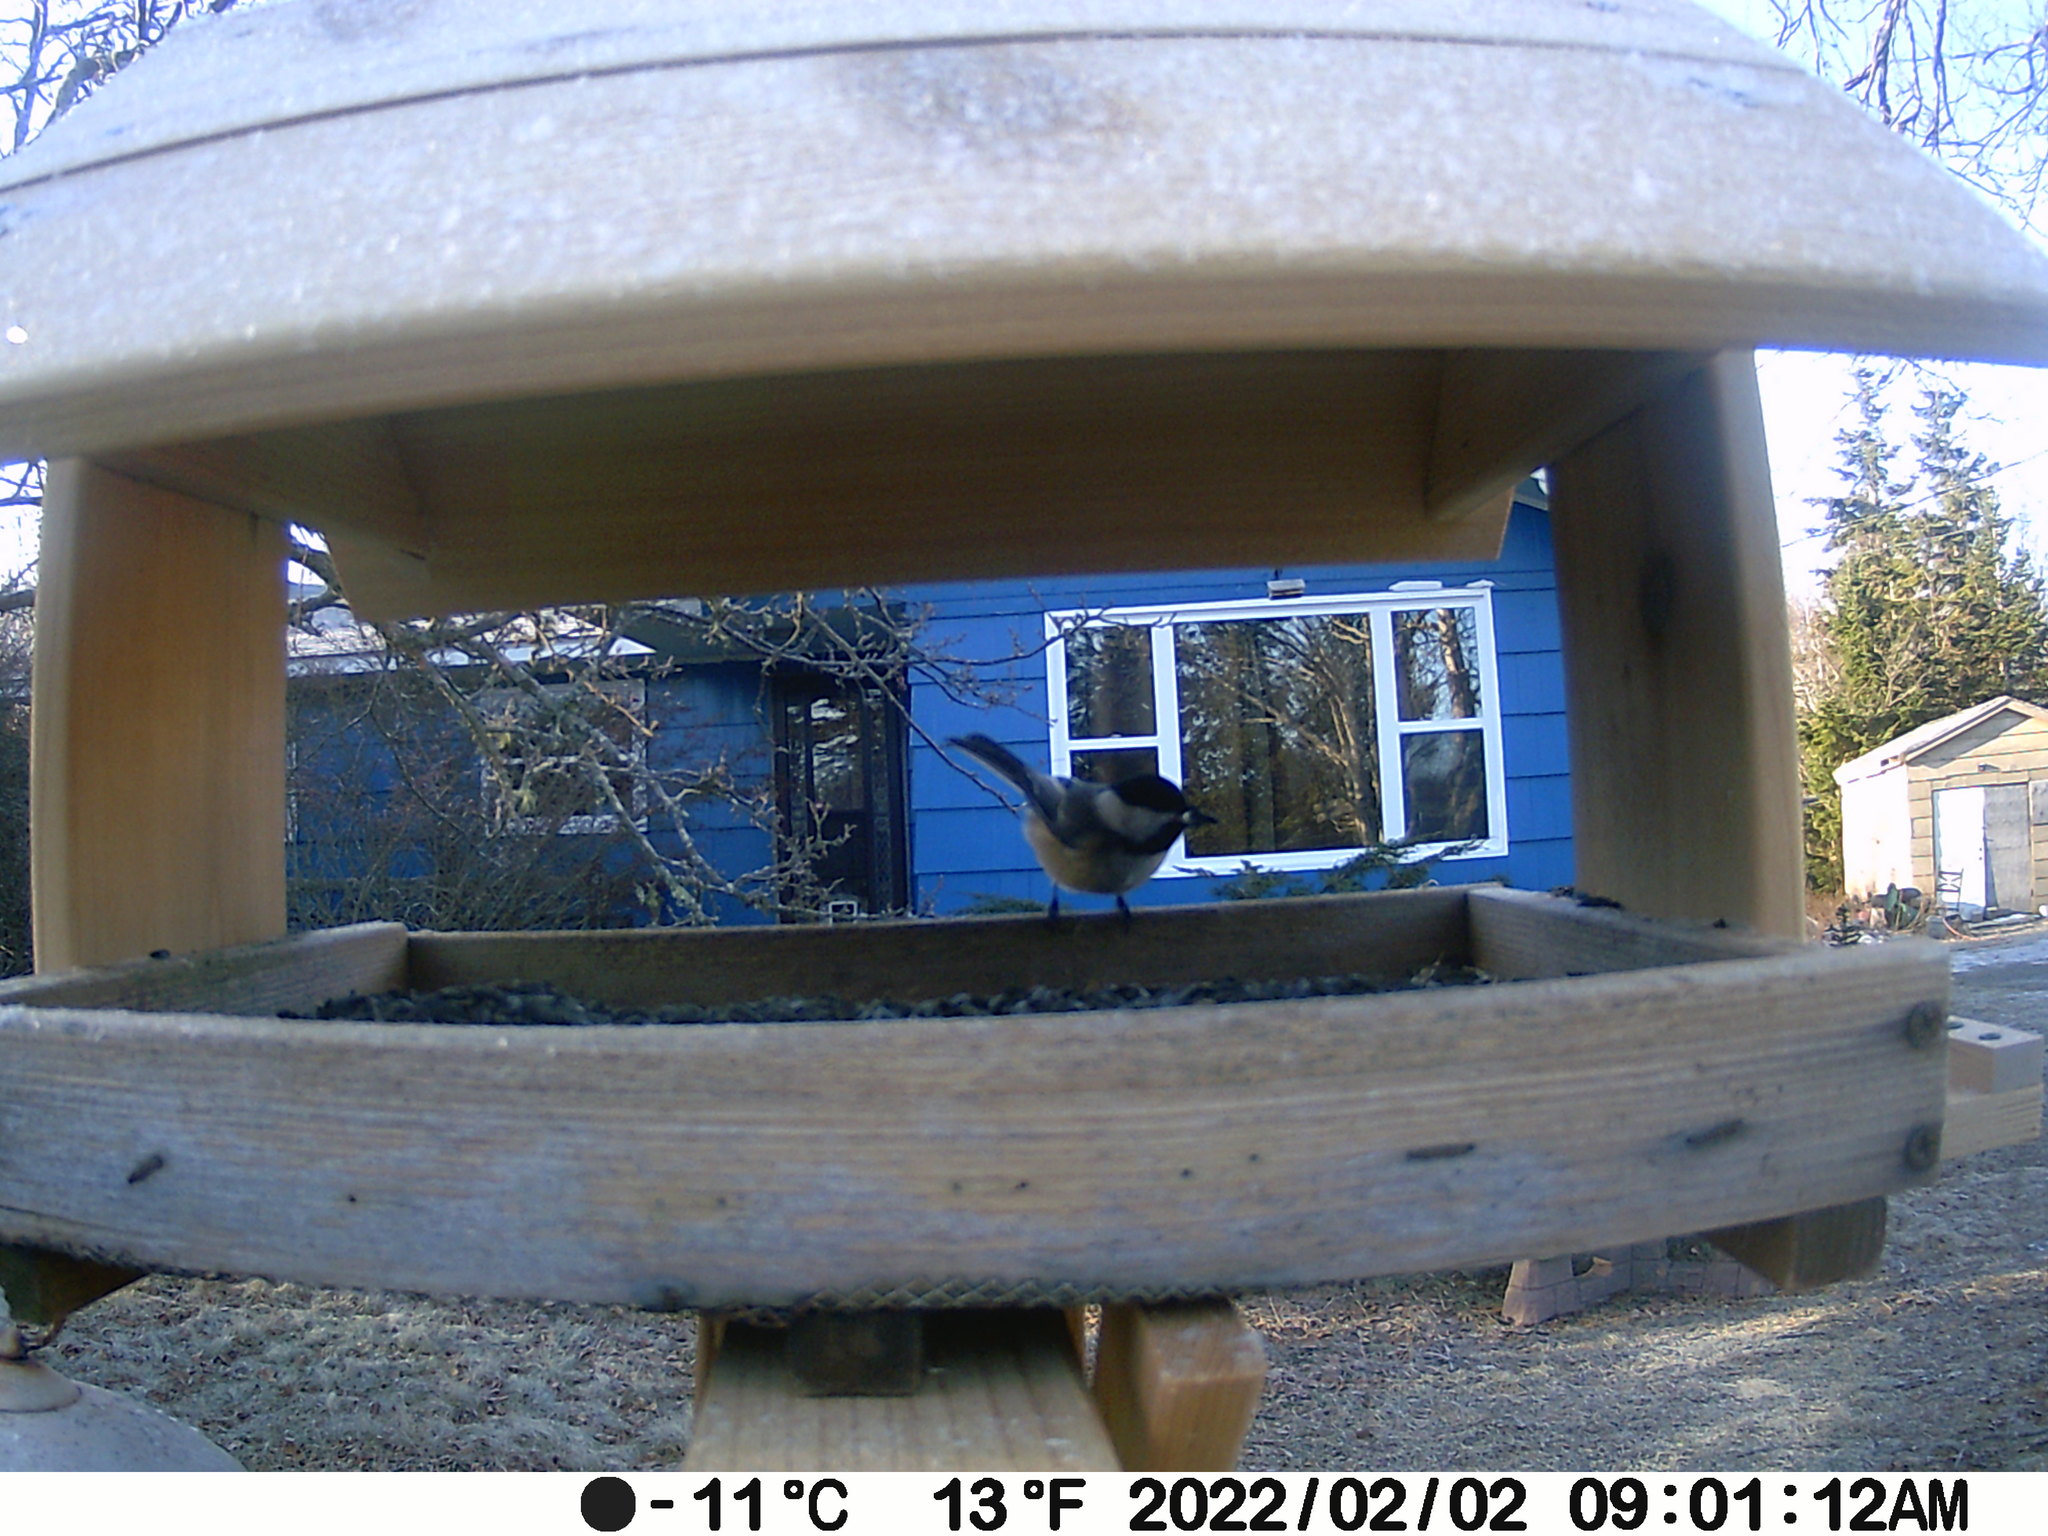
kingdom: Animalia
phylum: Chordata
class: Aves
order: Passeriformes
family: Paridae
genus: Poecile
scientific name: Poecile atricapillus
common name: Black-capped chickadee
